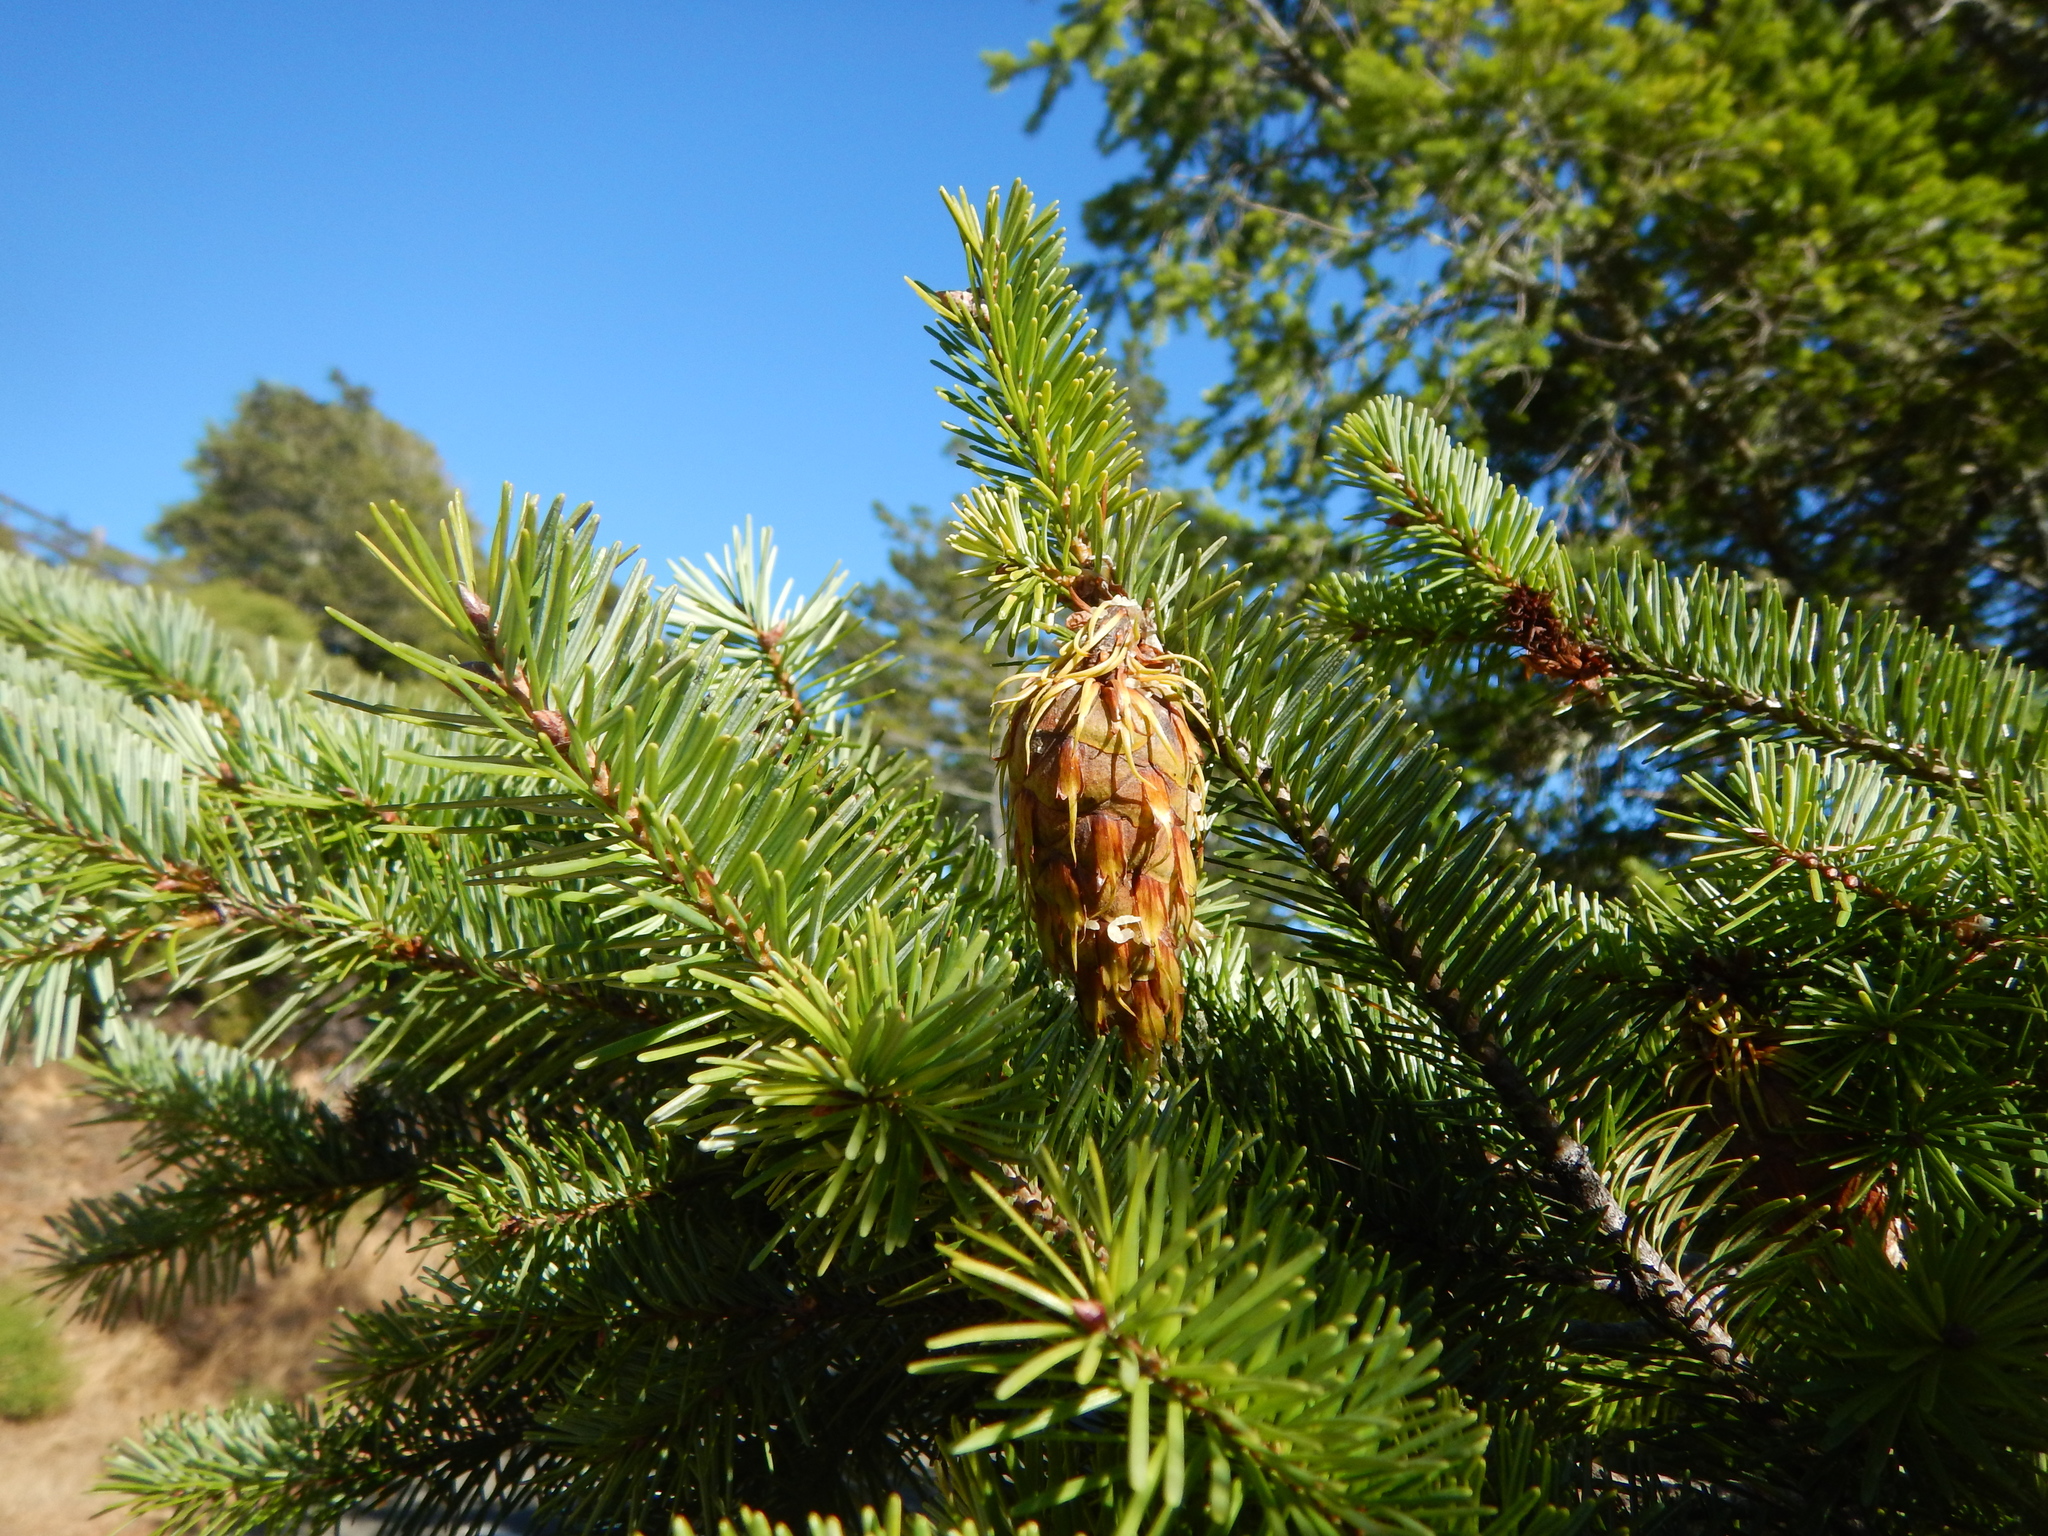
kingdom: Plantae
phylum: Tracheophyta
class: Pinopsida
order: Pinales
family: Pinaceae
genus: Pseudotsuga
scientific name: Pseudotsuga menziesii
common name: Douglas fir
